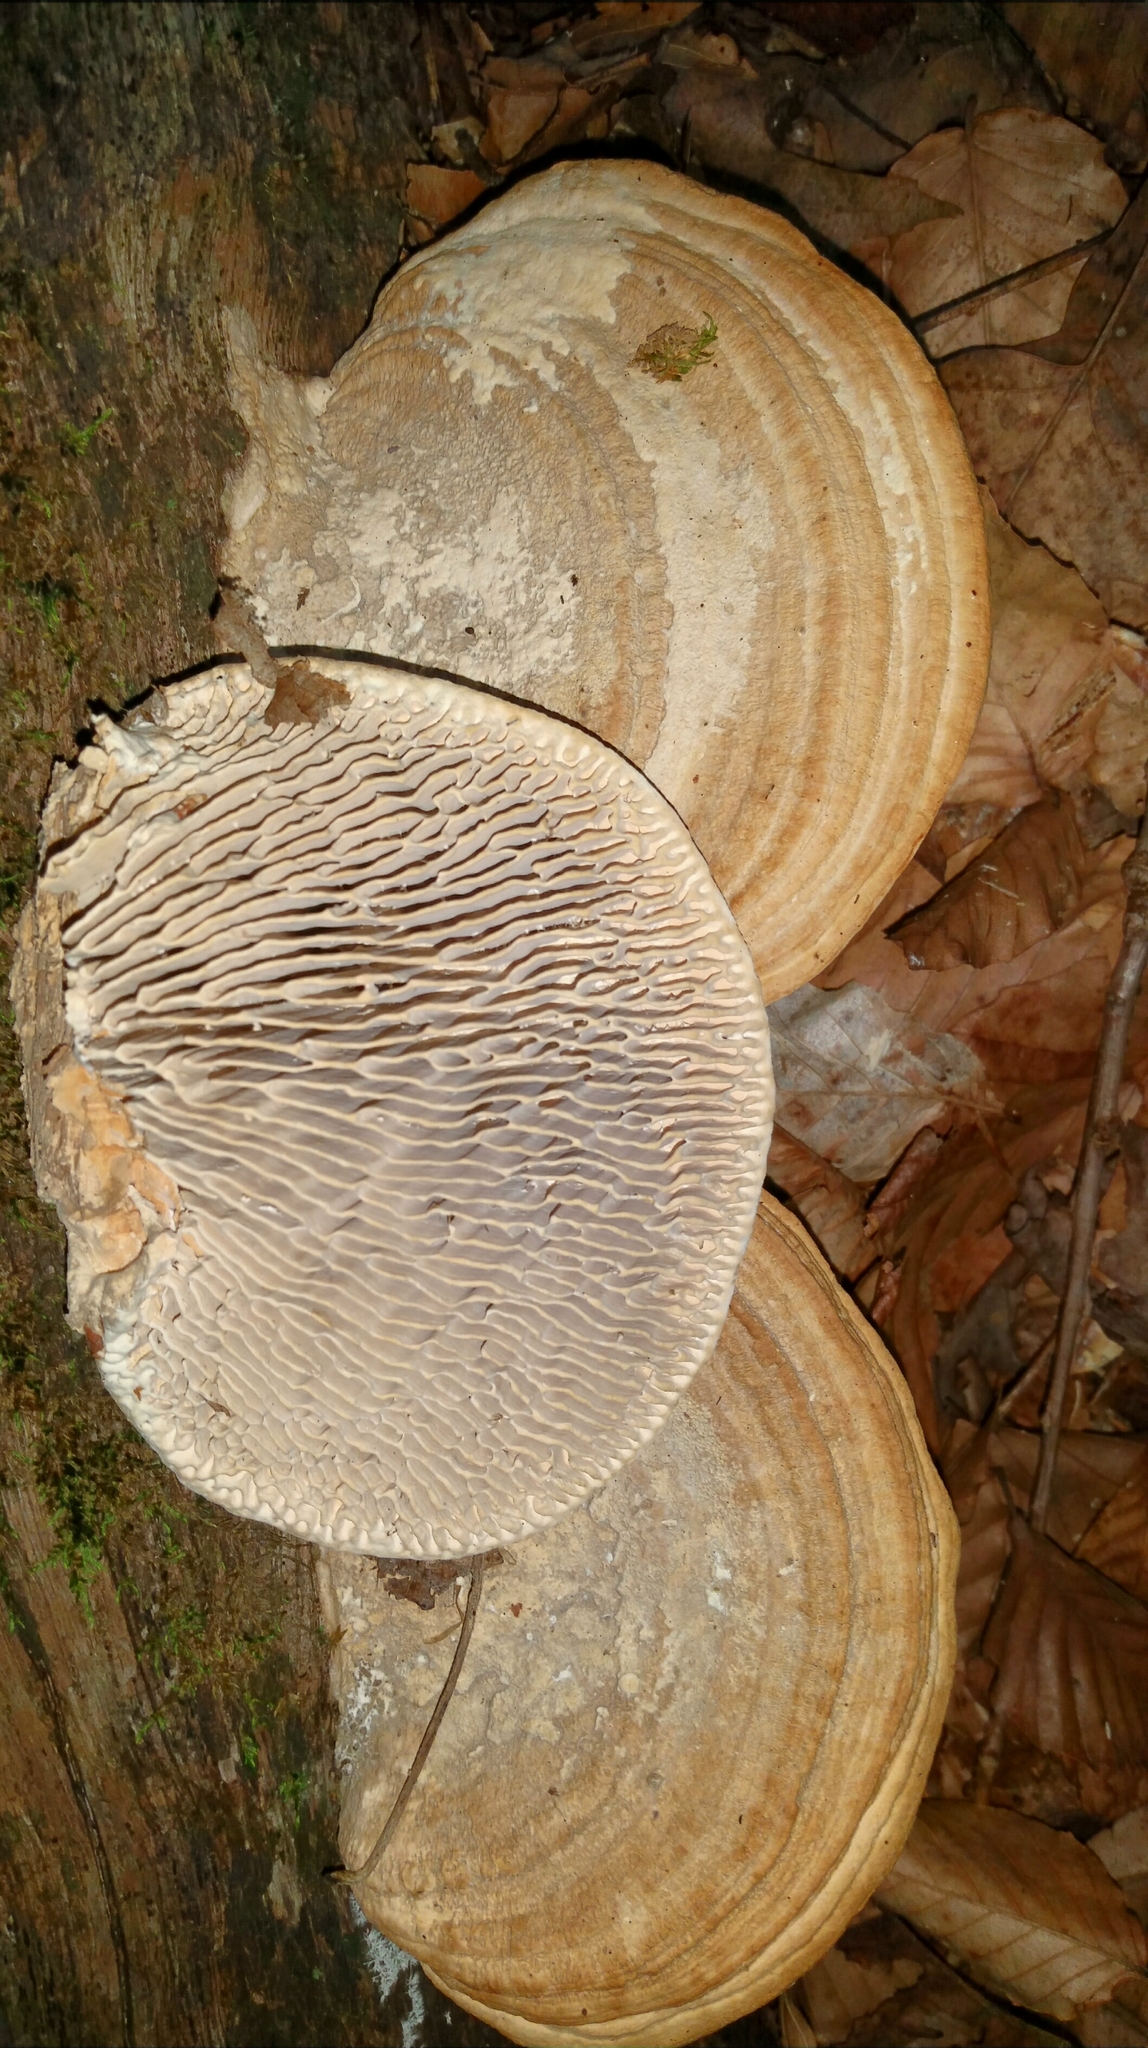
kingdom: Fungi
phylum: Basidiomycota
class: Agaricomycetes
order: Polyporales
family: Fomitopsidaceae
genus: Fomitopsis
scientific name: Fomitopsis
